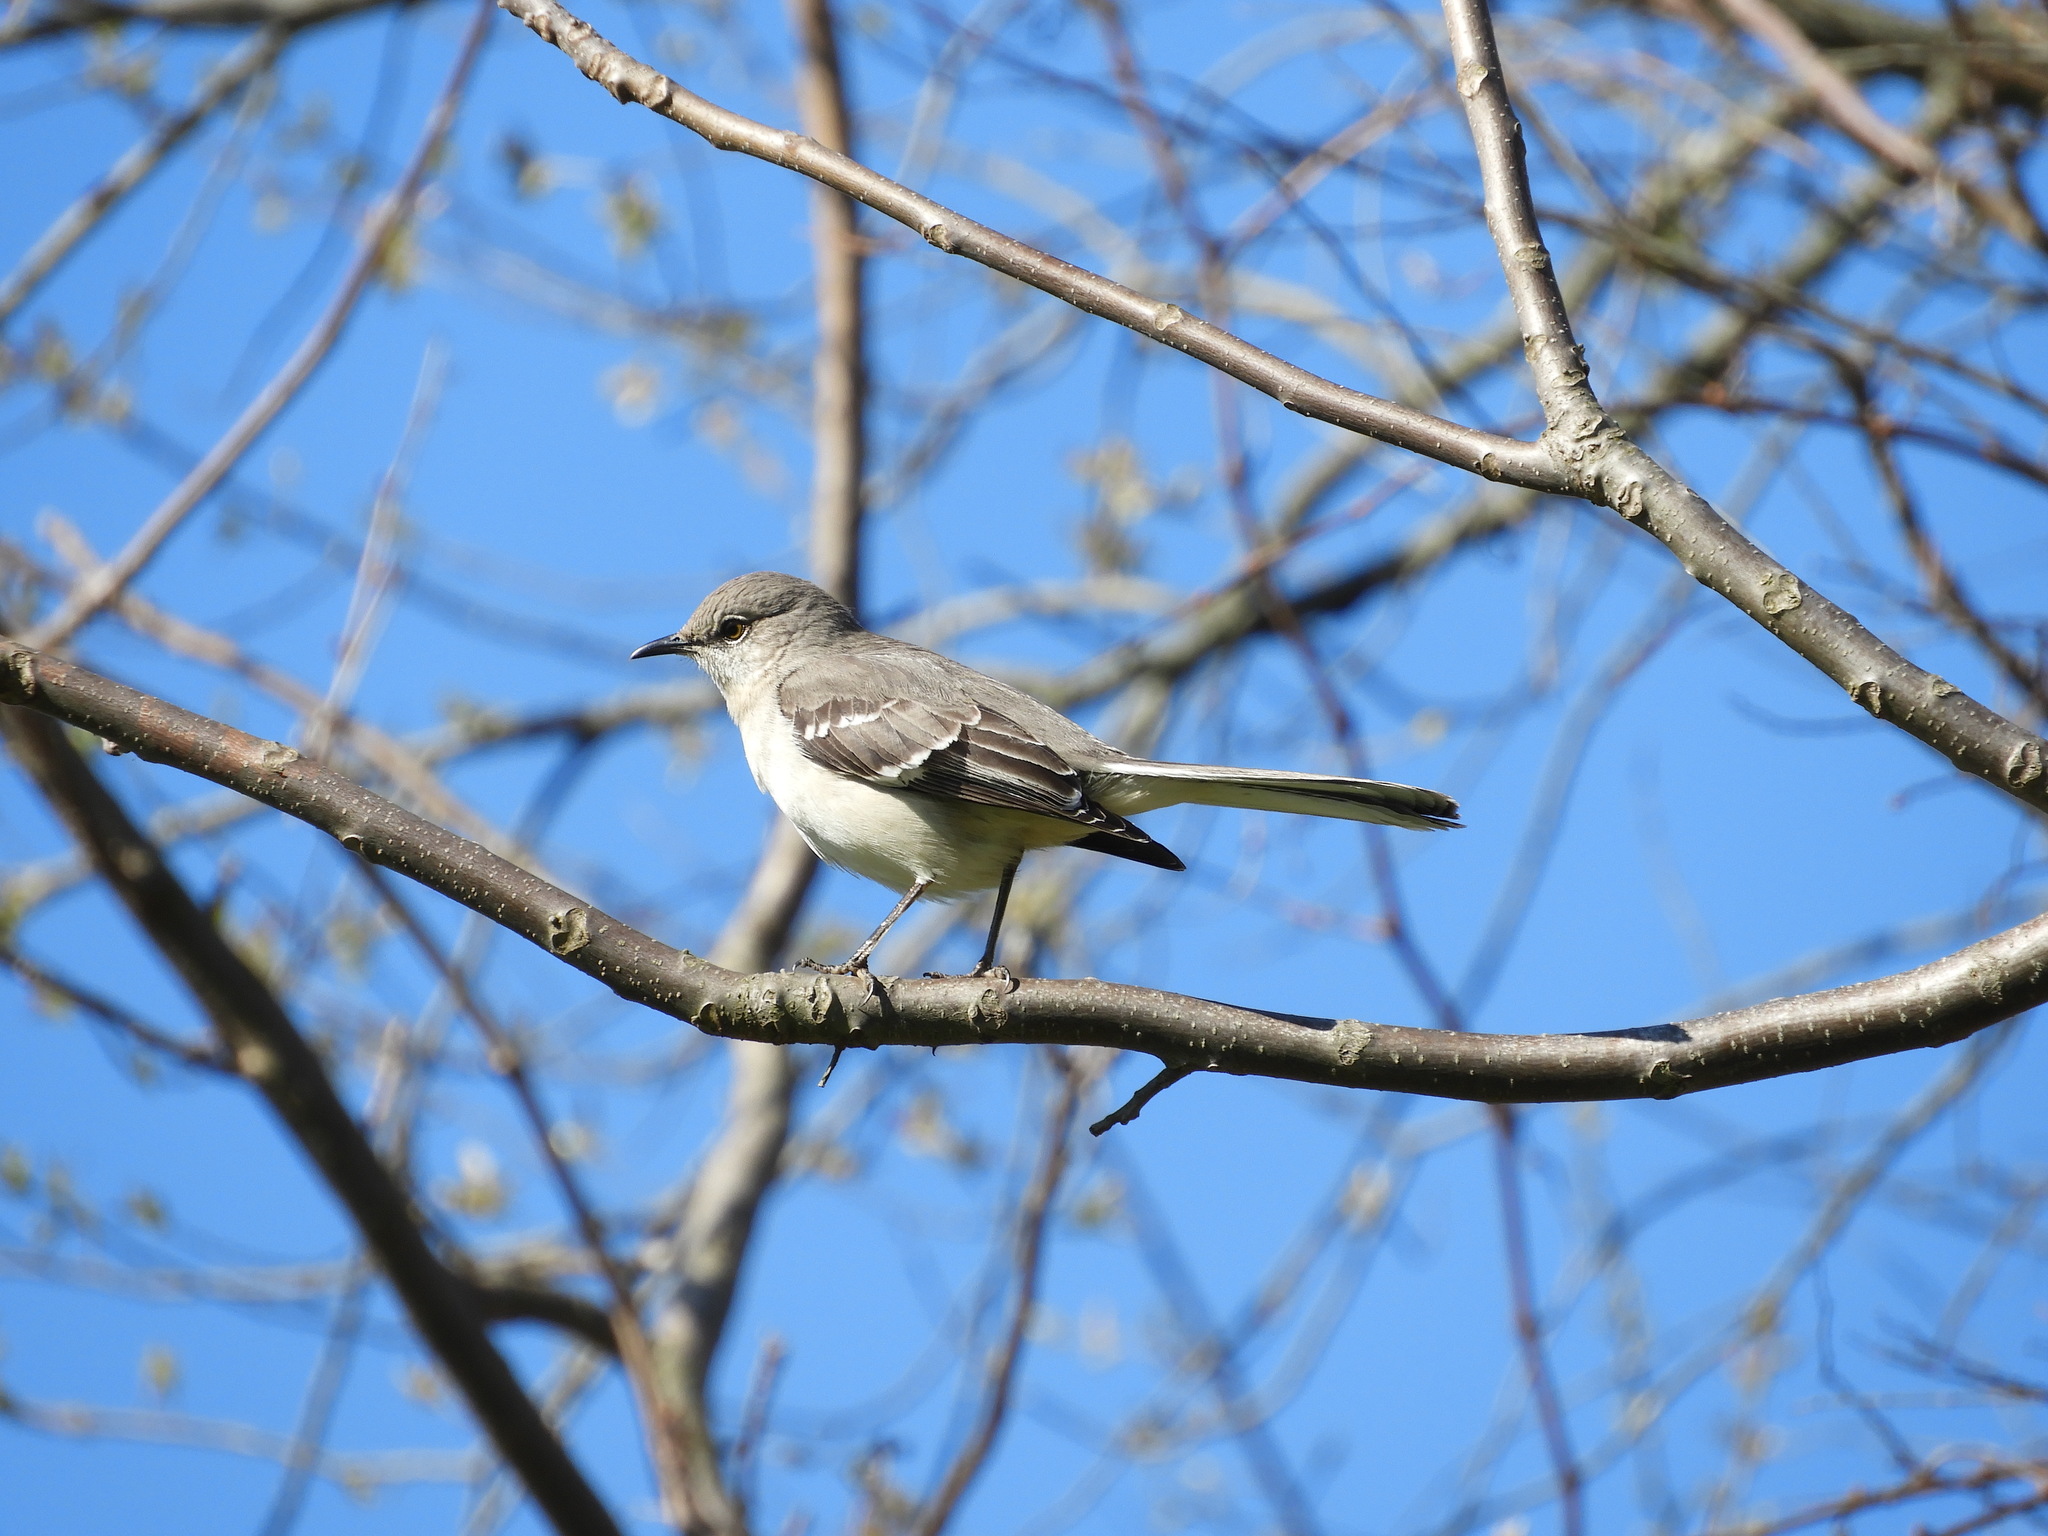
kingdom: Animalia
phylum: Chordata
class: Aves
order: Passeriformes
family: Mimidae
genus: Mimus
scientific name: Mimus polyglottos
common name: Northern mockingbird
